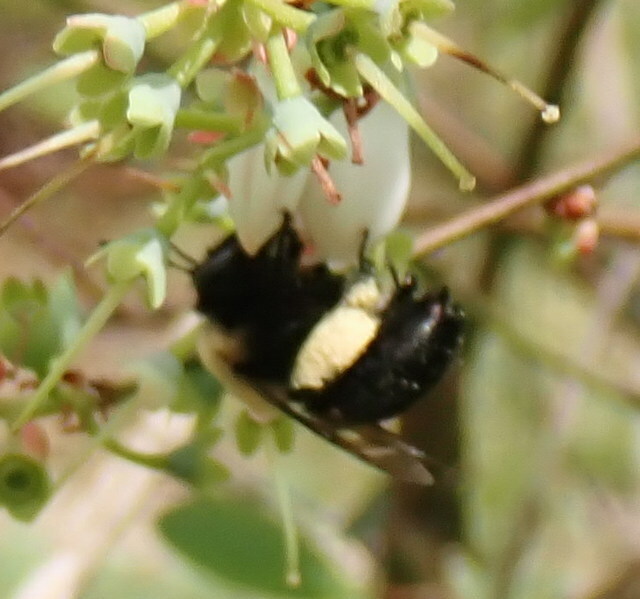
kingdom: Animalia
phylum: Arthropoda
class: Insecta
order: Hymenoptera
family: Apidae
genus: Habropoda
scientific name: Habropoda laboriosa
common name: Southeastern blueberry bee
